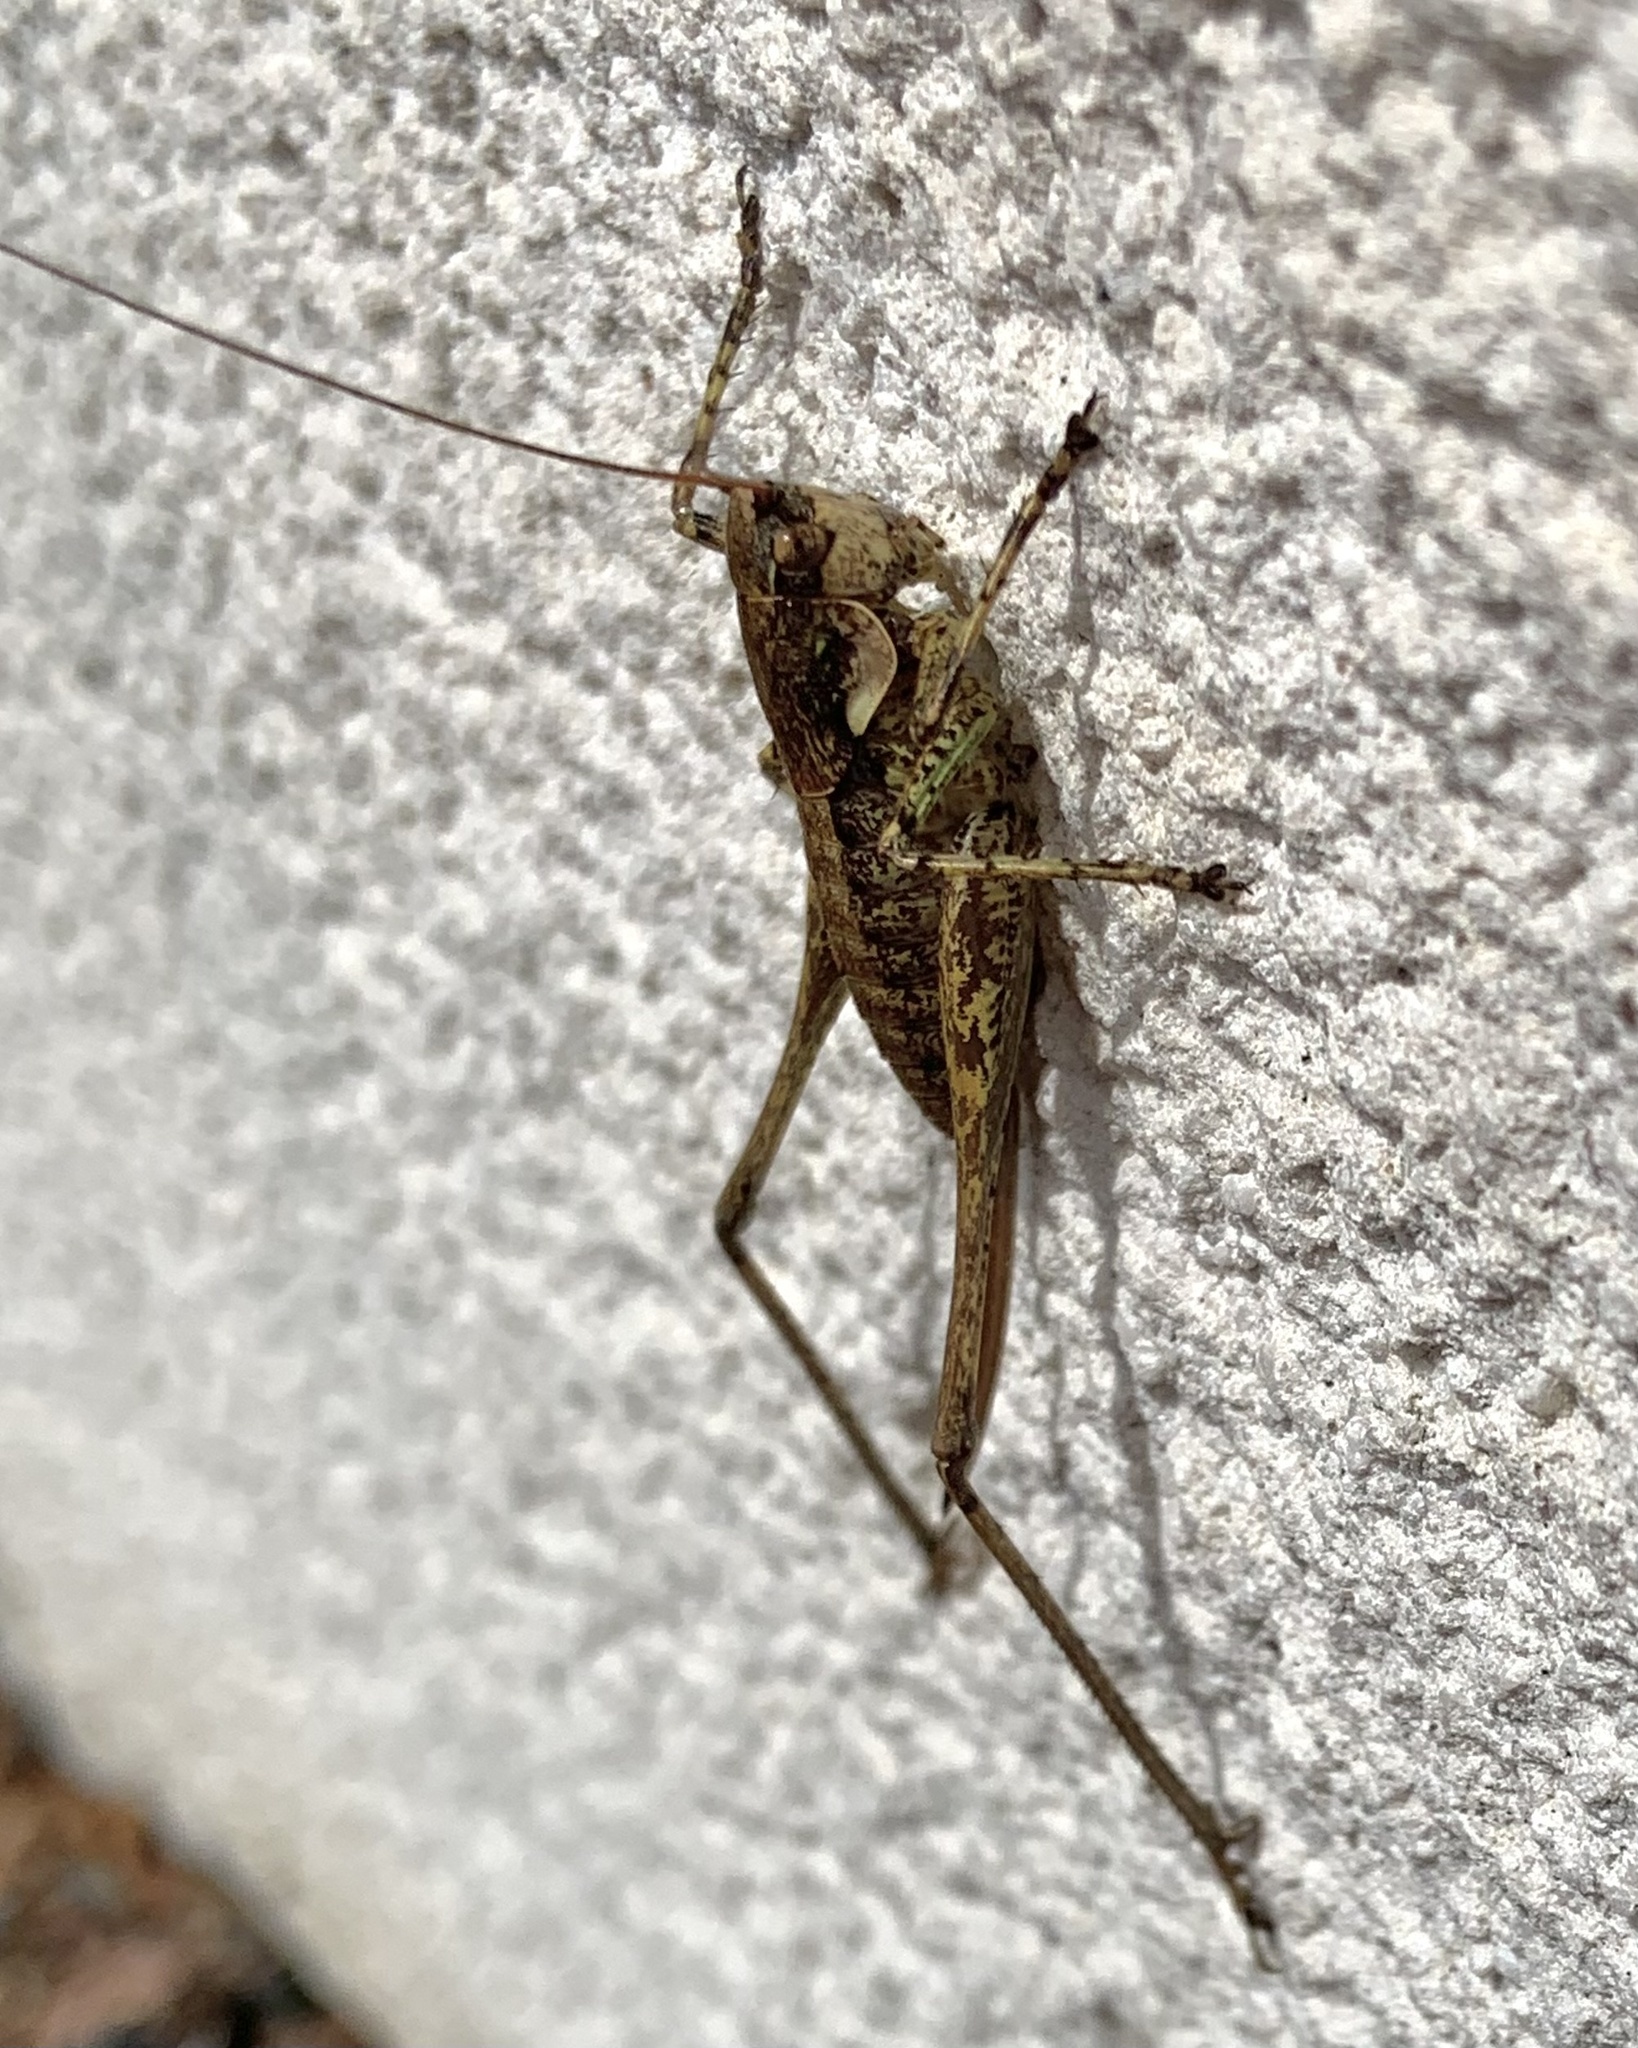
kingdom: Animalia
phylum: Arthropoda
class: Insecta
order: Orthoptera
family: Tettigoniidae
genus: Rhacocleis
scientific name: Rhacocleis annulata
